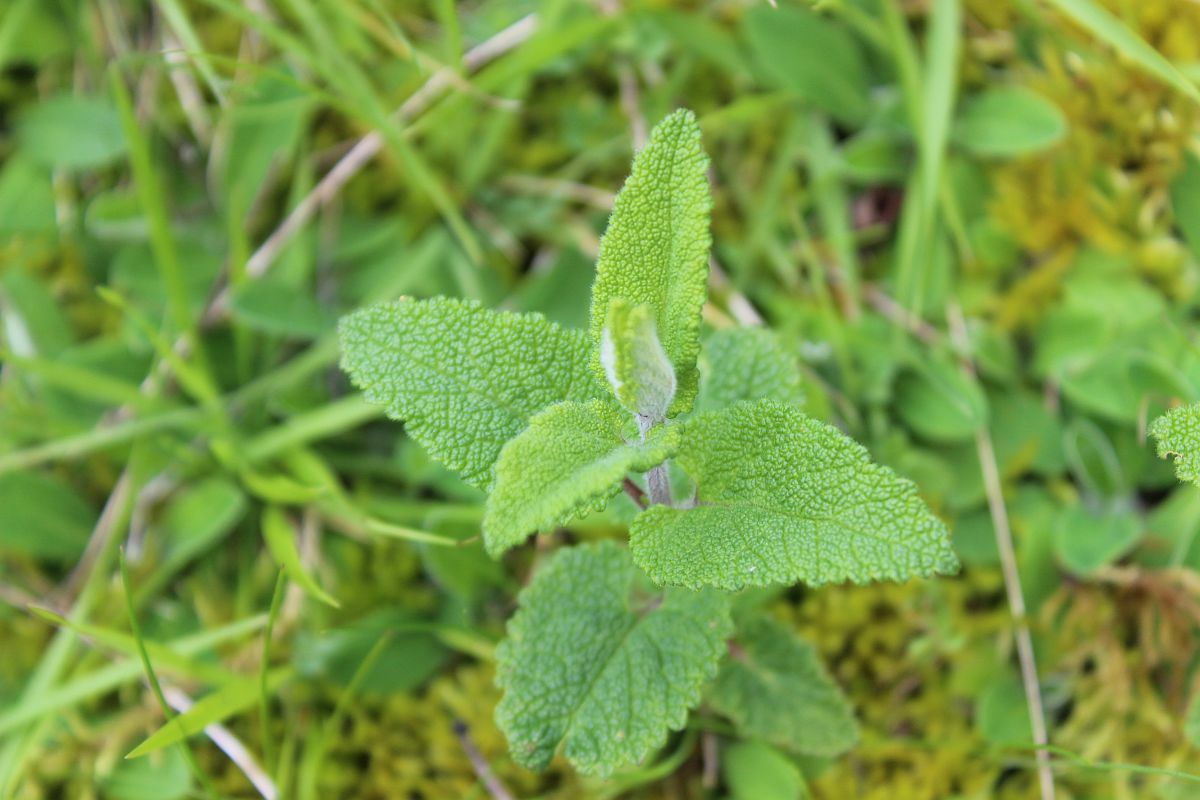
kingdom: Plantae
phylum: Tracheophyta
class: Magnoliopsida
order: Lamiales
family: Lamiaceae
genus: Teucrium
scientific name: Teucrium scorodonia
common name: Woodland germander
